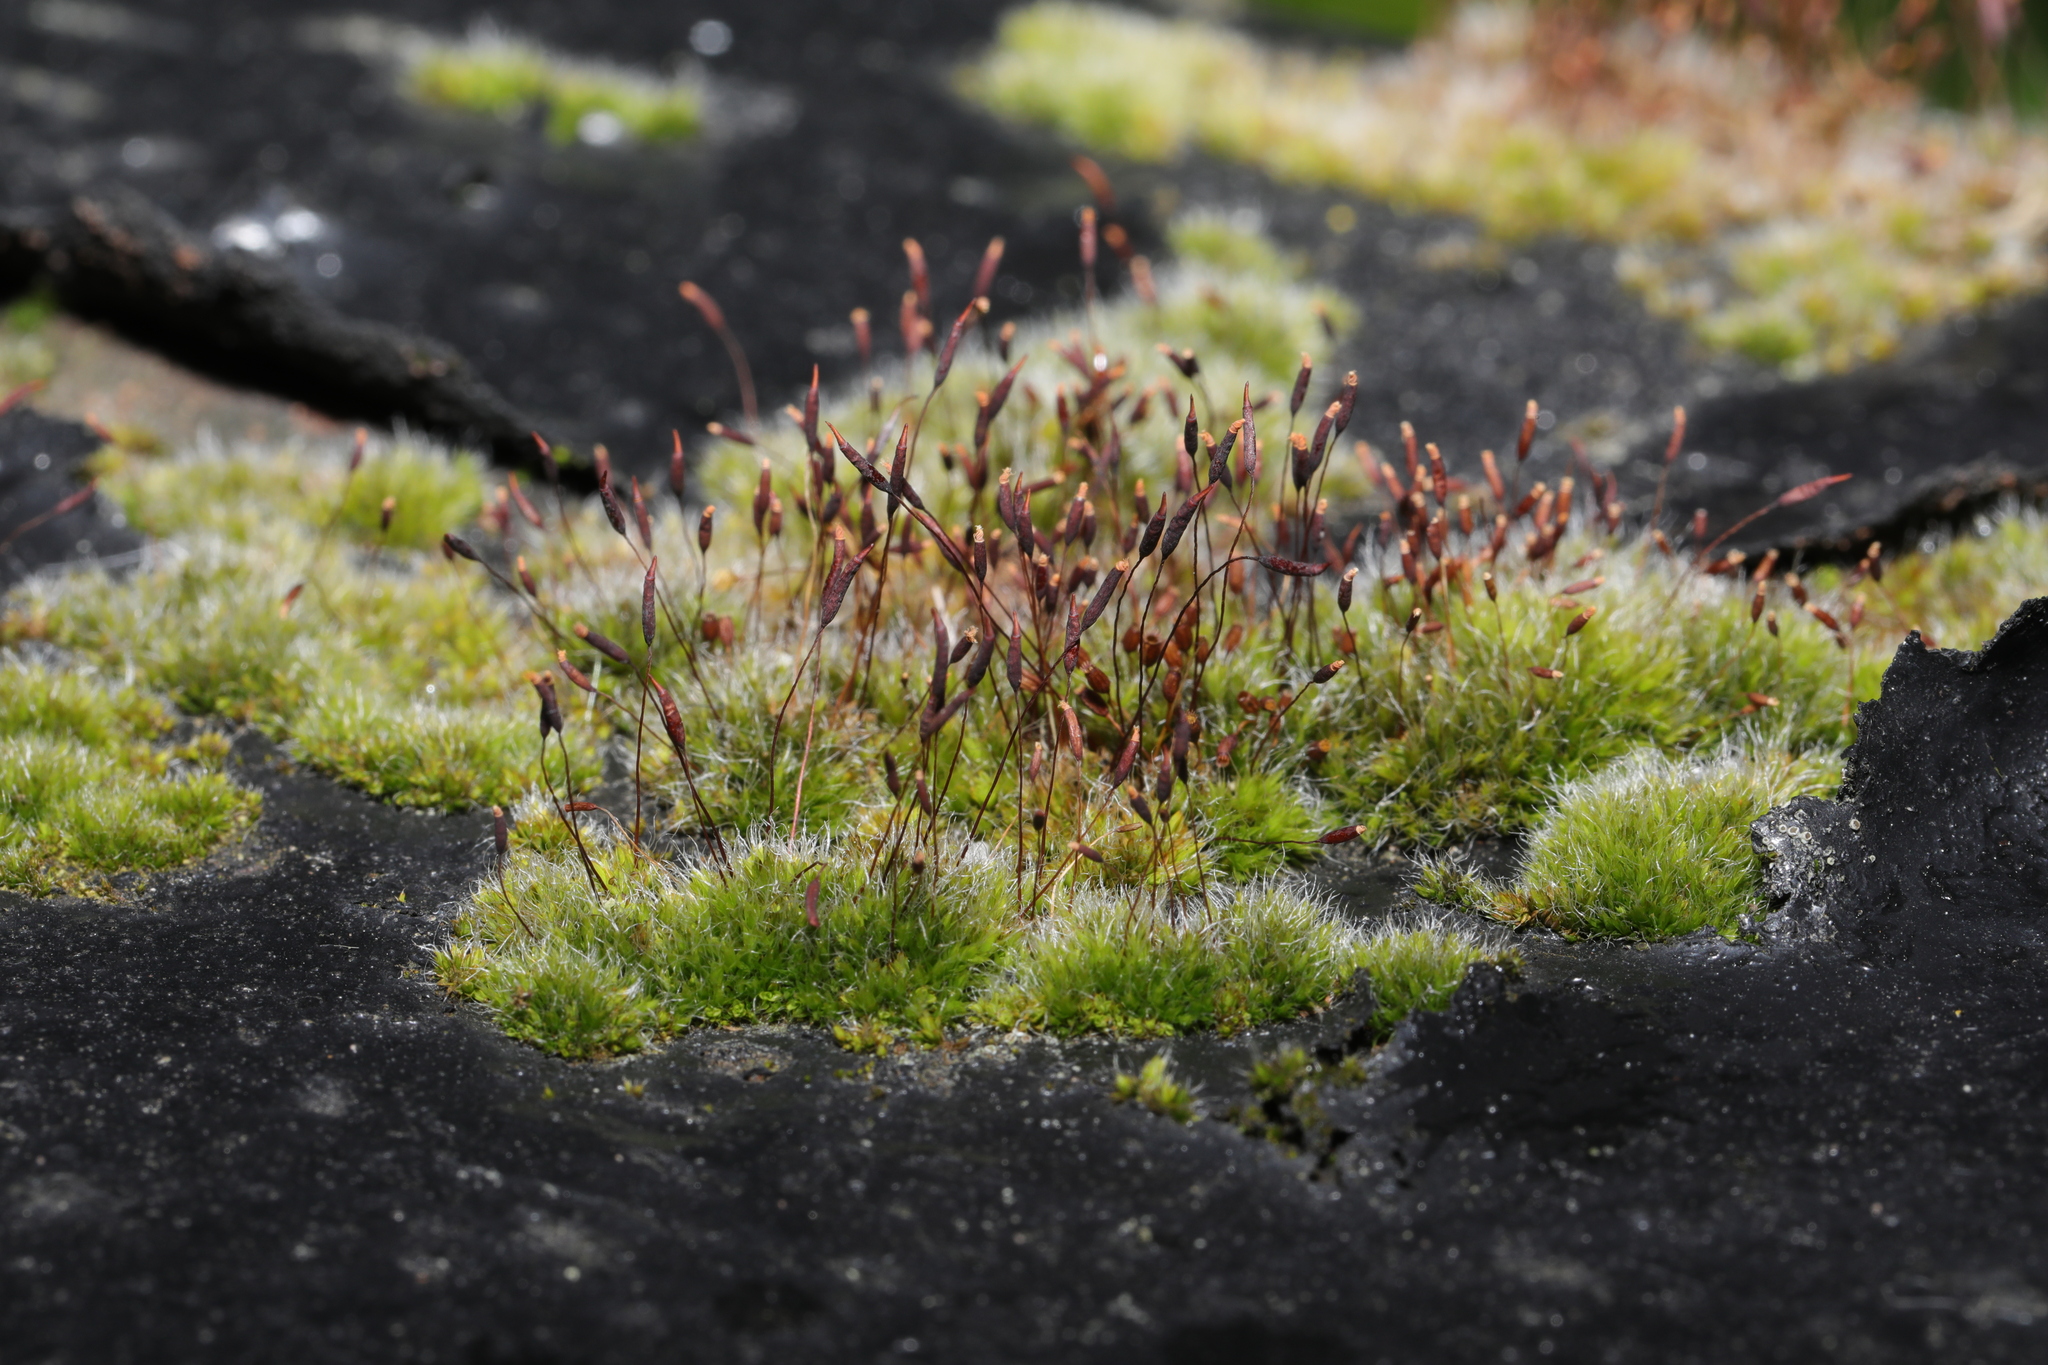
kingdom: Plantae
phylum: Bryophyta
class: Bryopsida
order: Pottiales
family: Pottiaceae
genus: Tortula
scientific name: Tortula muralis
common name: Wall screw-moss
